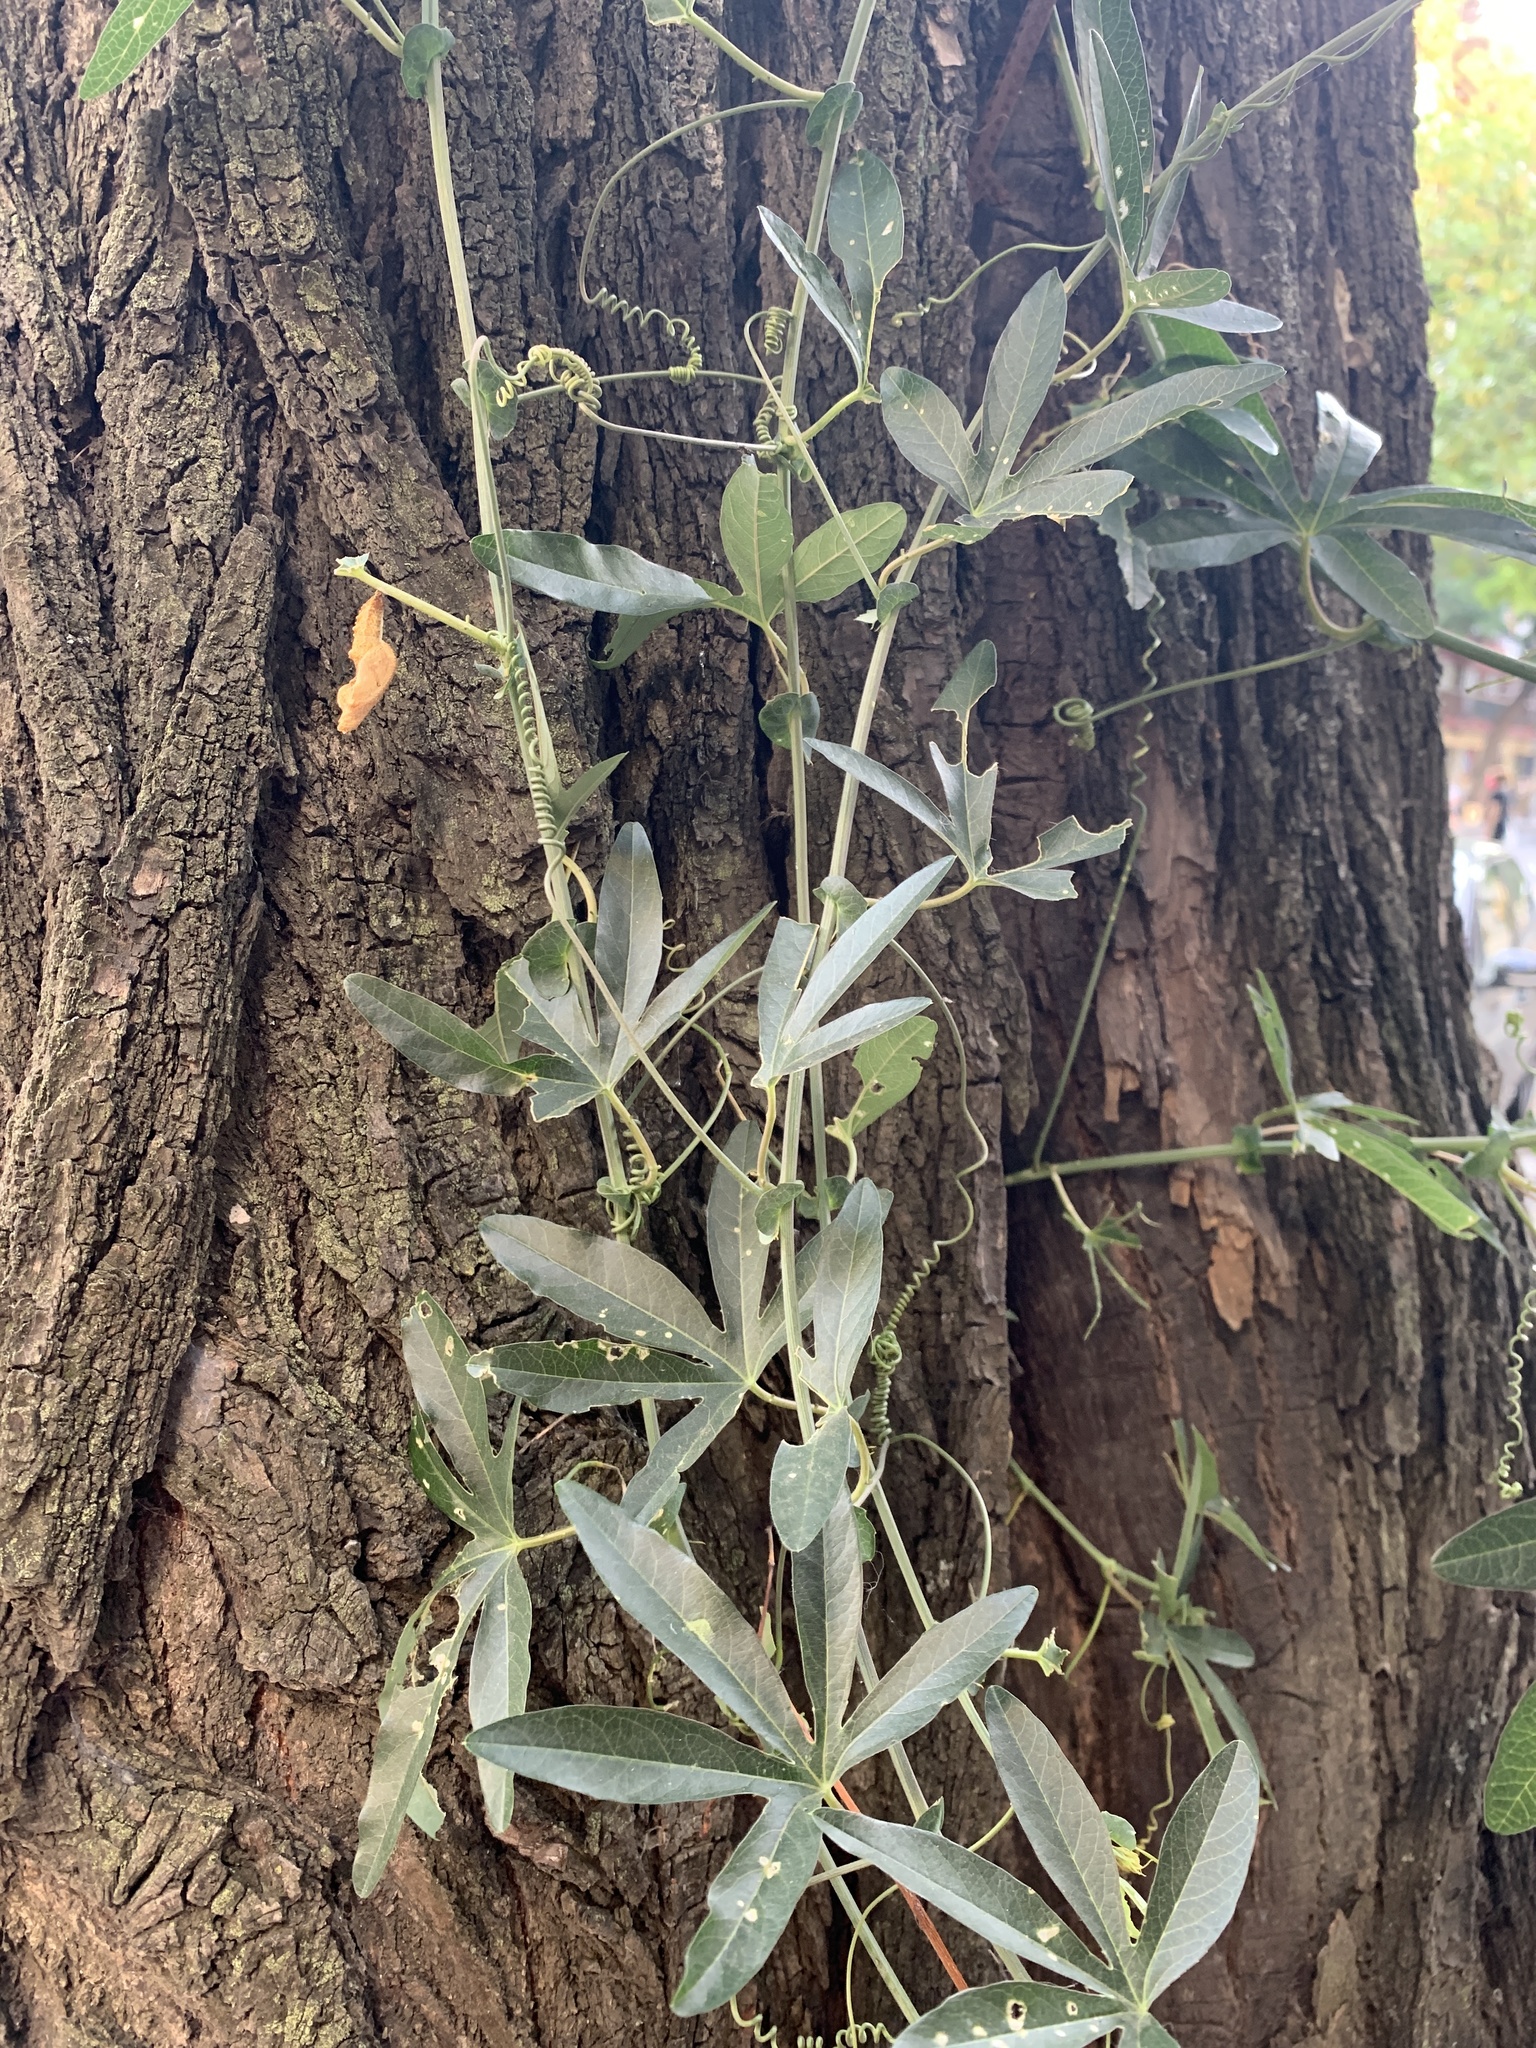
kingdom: Plantae
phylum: Tracheophyta
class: Magnoliopsida
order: Malpighiales
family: Passifloraceae
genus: Passiflora
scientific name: Passiflora caerulea
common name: Blue passionflower
